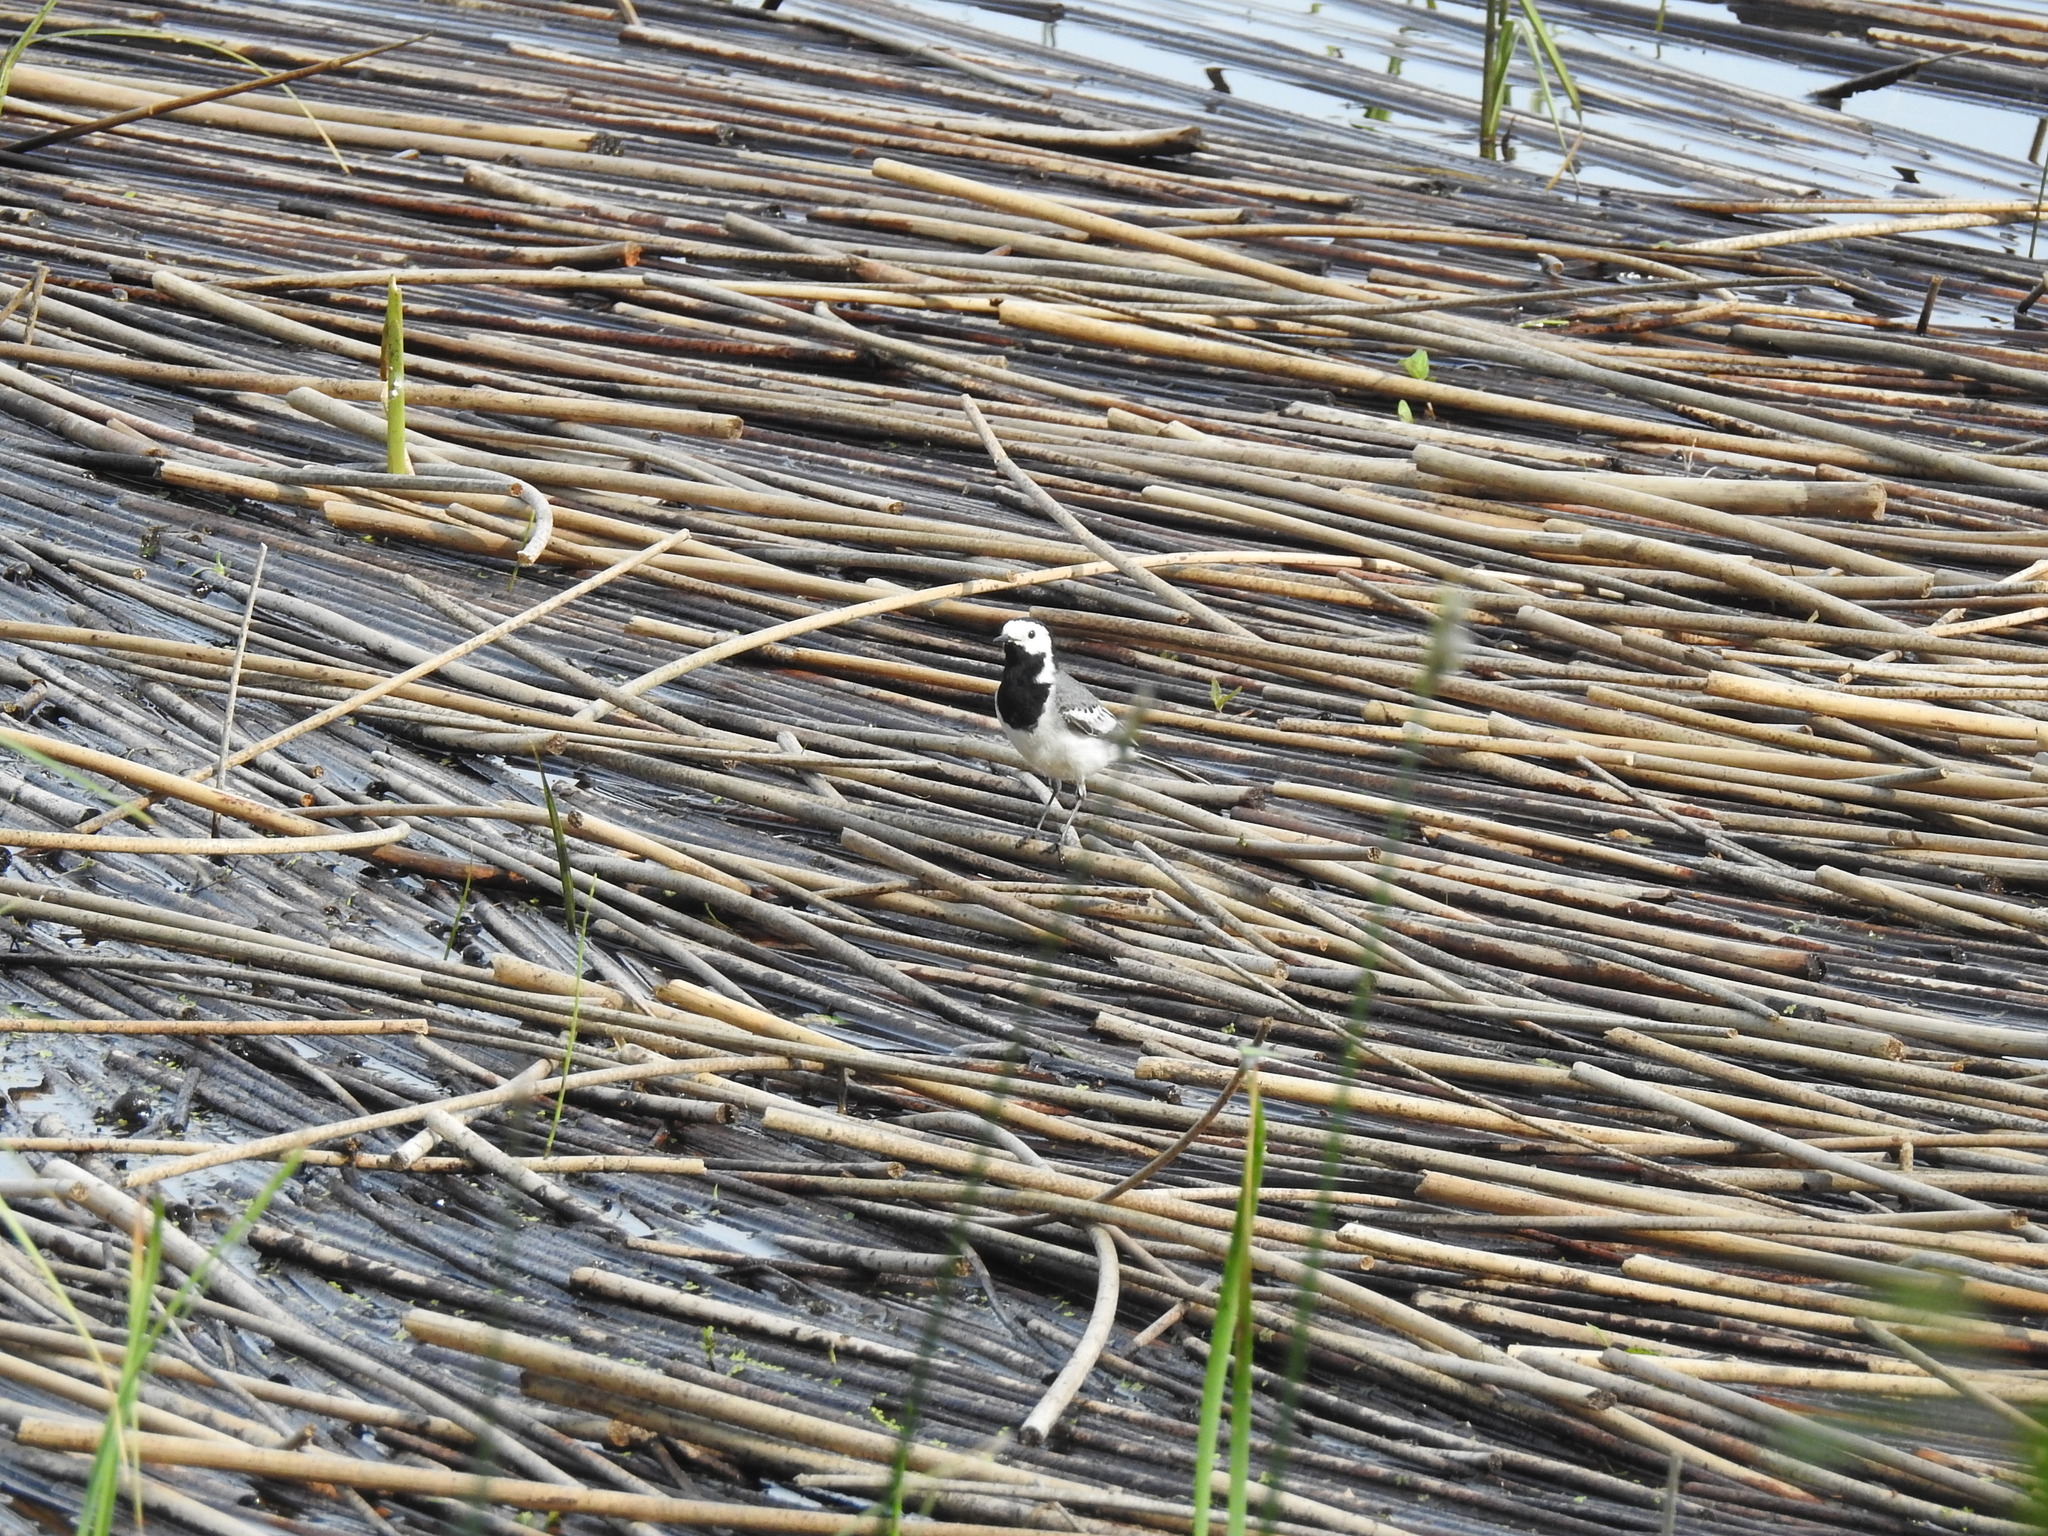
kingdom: Animalia
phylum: Chordata
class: Aves
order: Passeriformes
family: Motacillidae
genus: Motacilla
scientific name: Motacilla alba
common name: White wagtail
